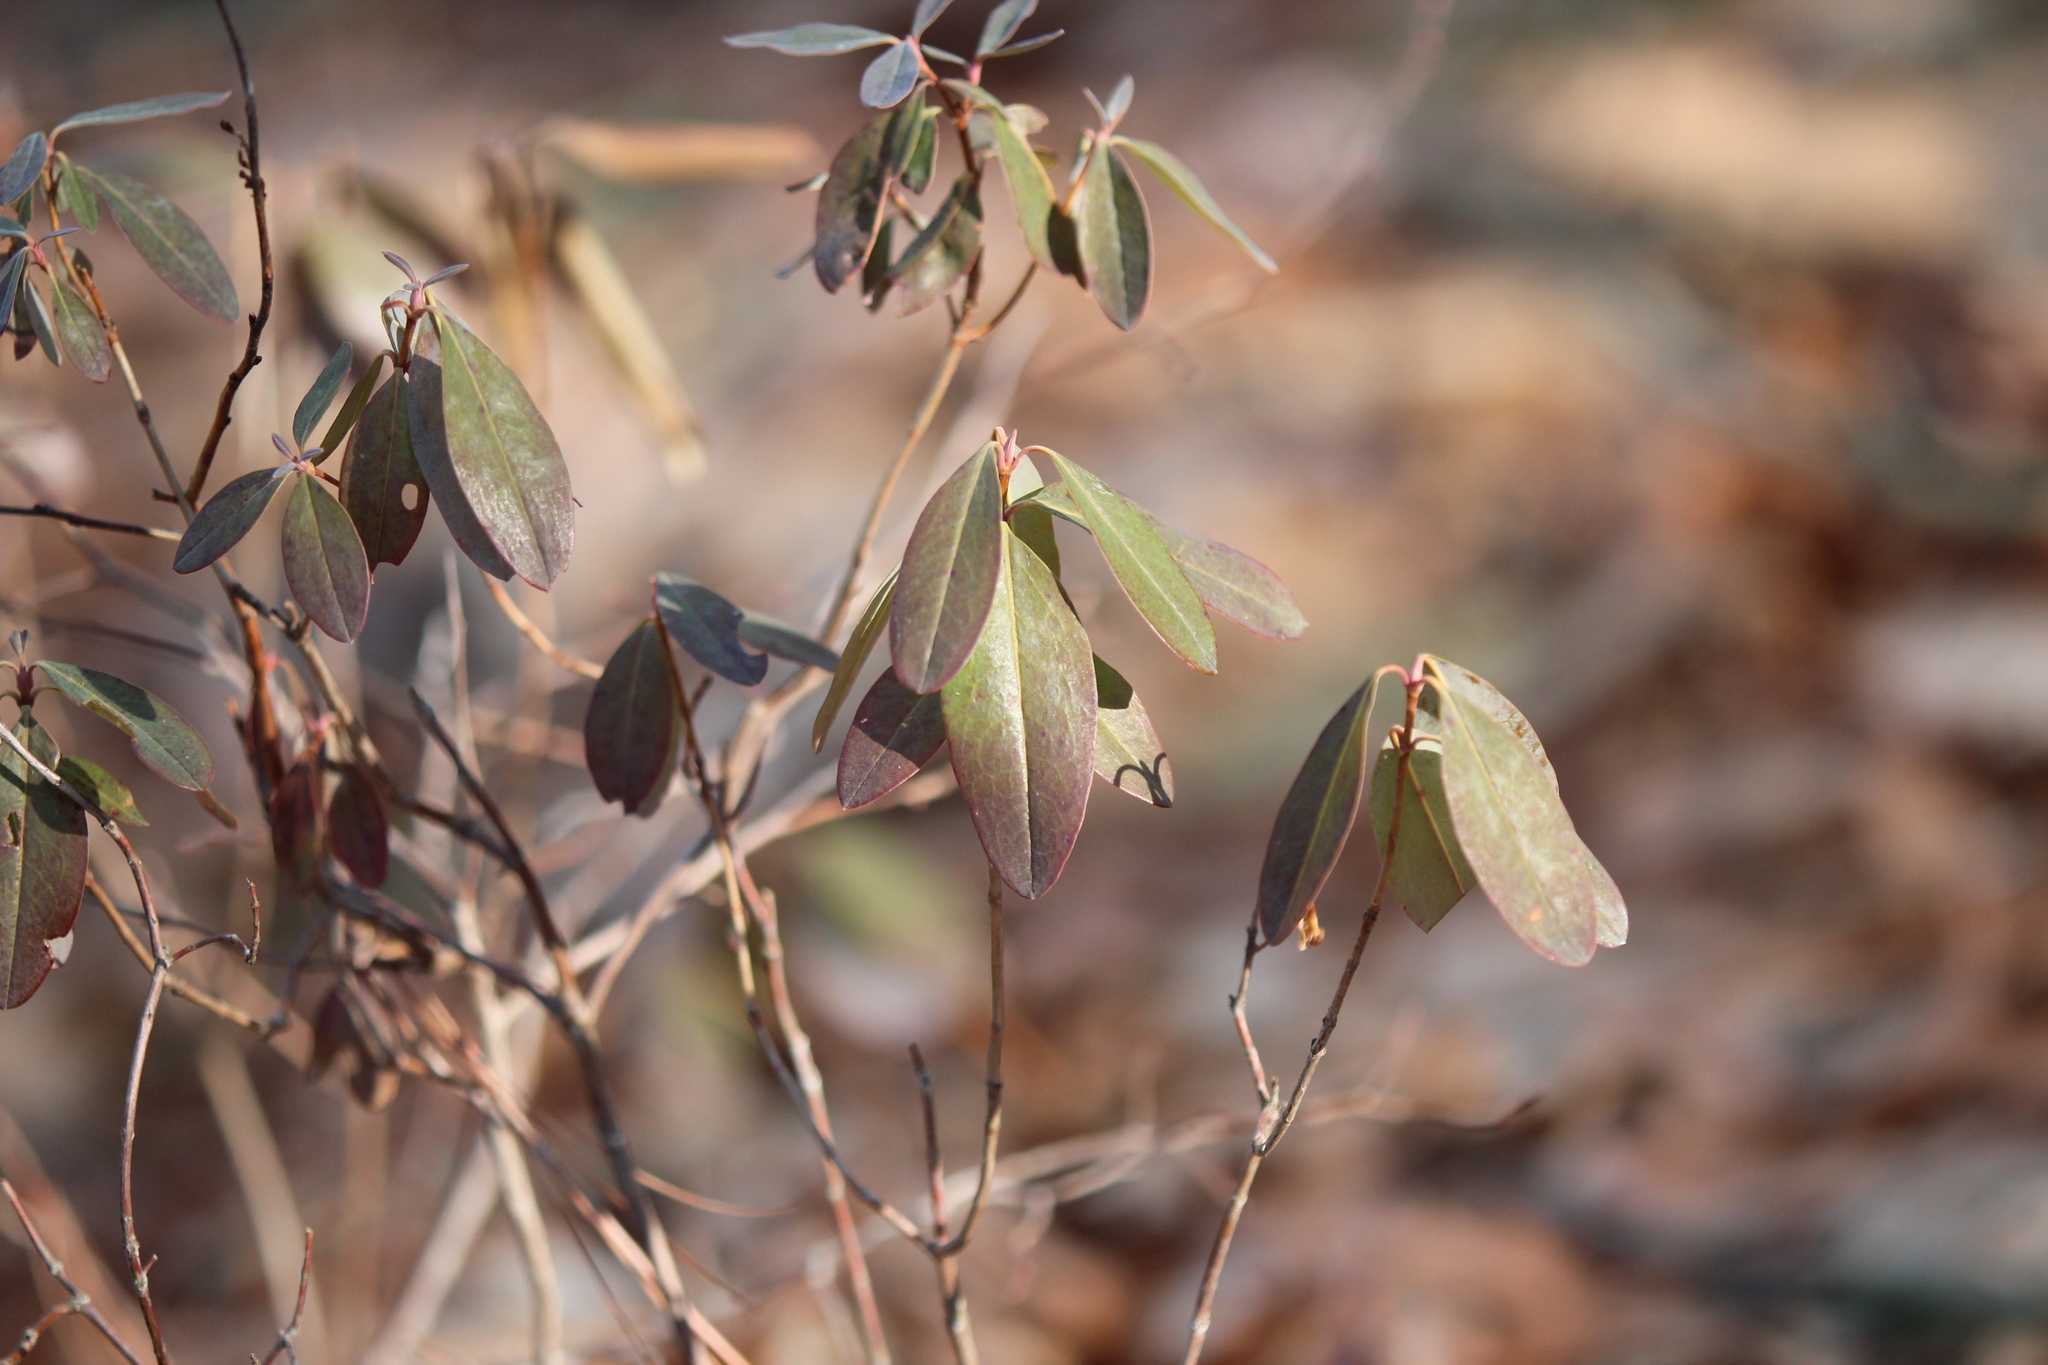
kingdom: Plantae
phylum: Tracheophyta
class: Magnoliopsida
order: Ericales
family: Ericaceae
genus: Kalmia
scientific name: Kalmia angustifolia
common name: Sheep-laurel
